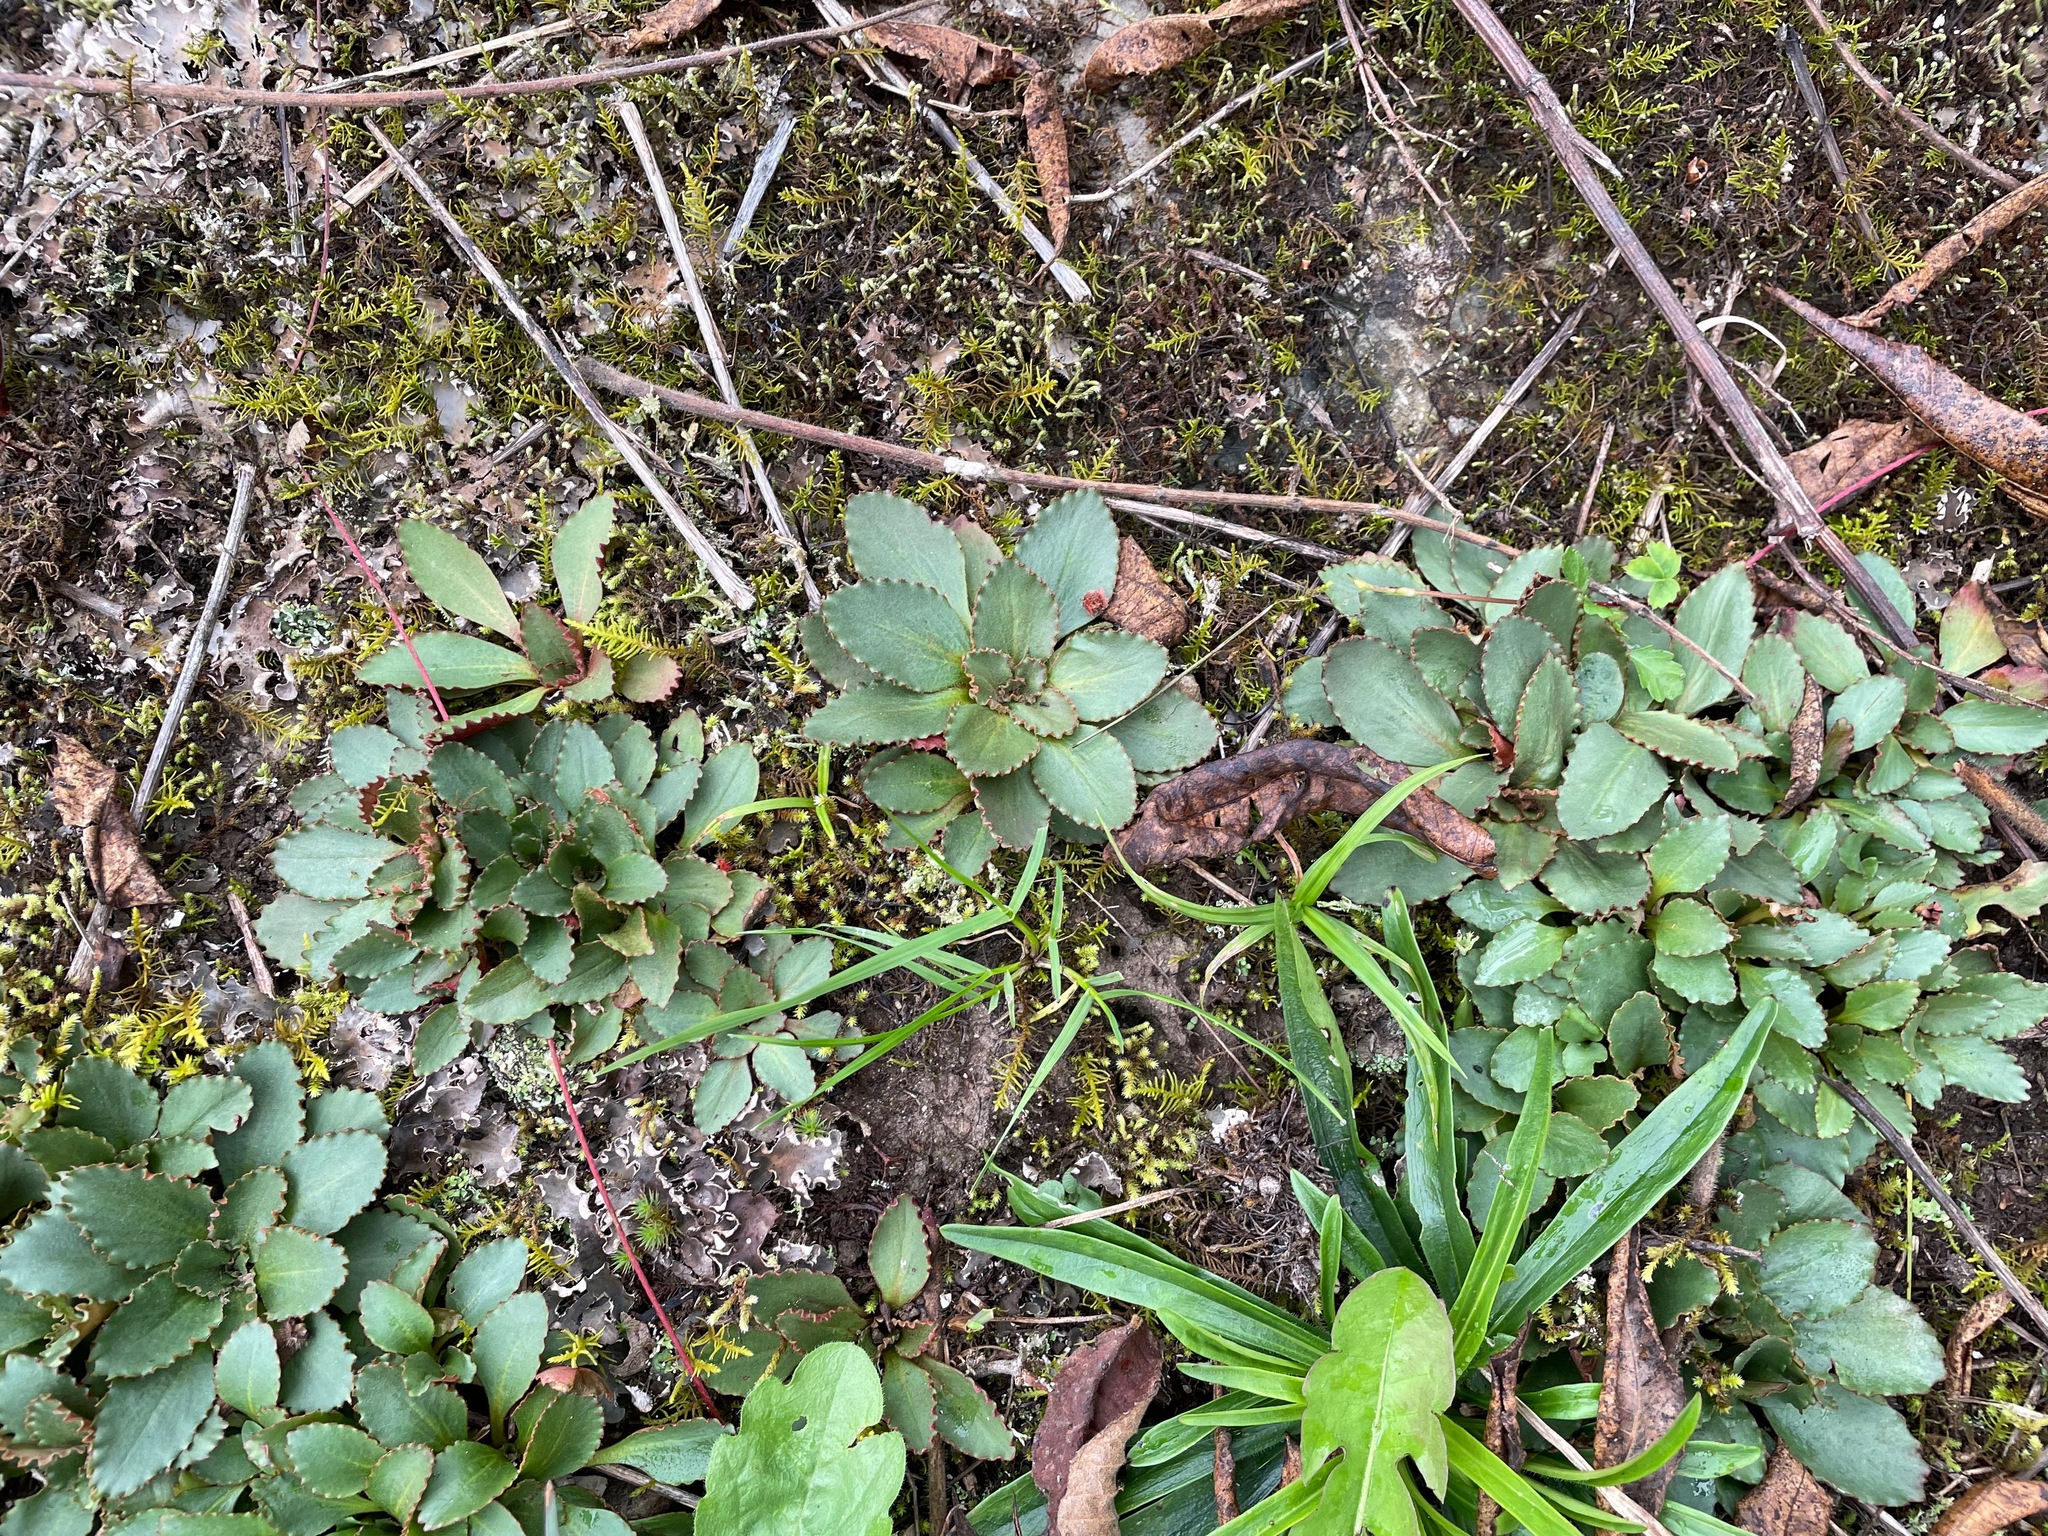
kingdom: Plantae
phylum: Tracheophyta
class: Magnoliopsida
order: Saxifragales
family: Saxifragaceae
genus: Micranthes
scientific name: Micranthes virginiensis
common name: Early saxifrage
